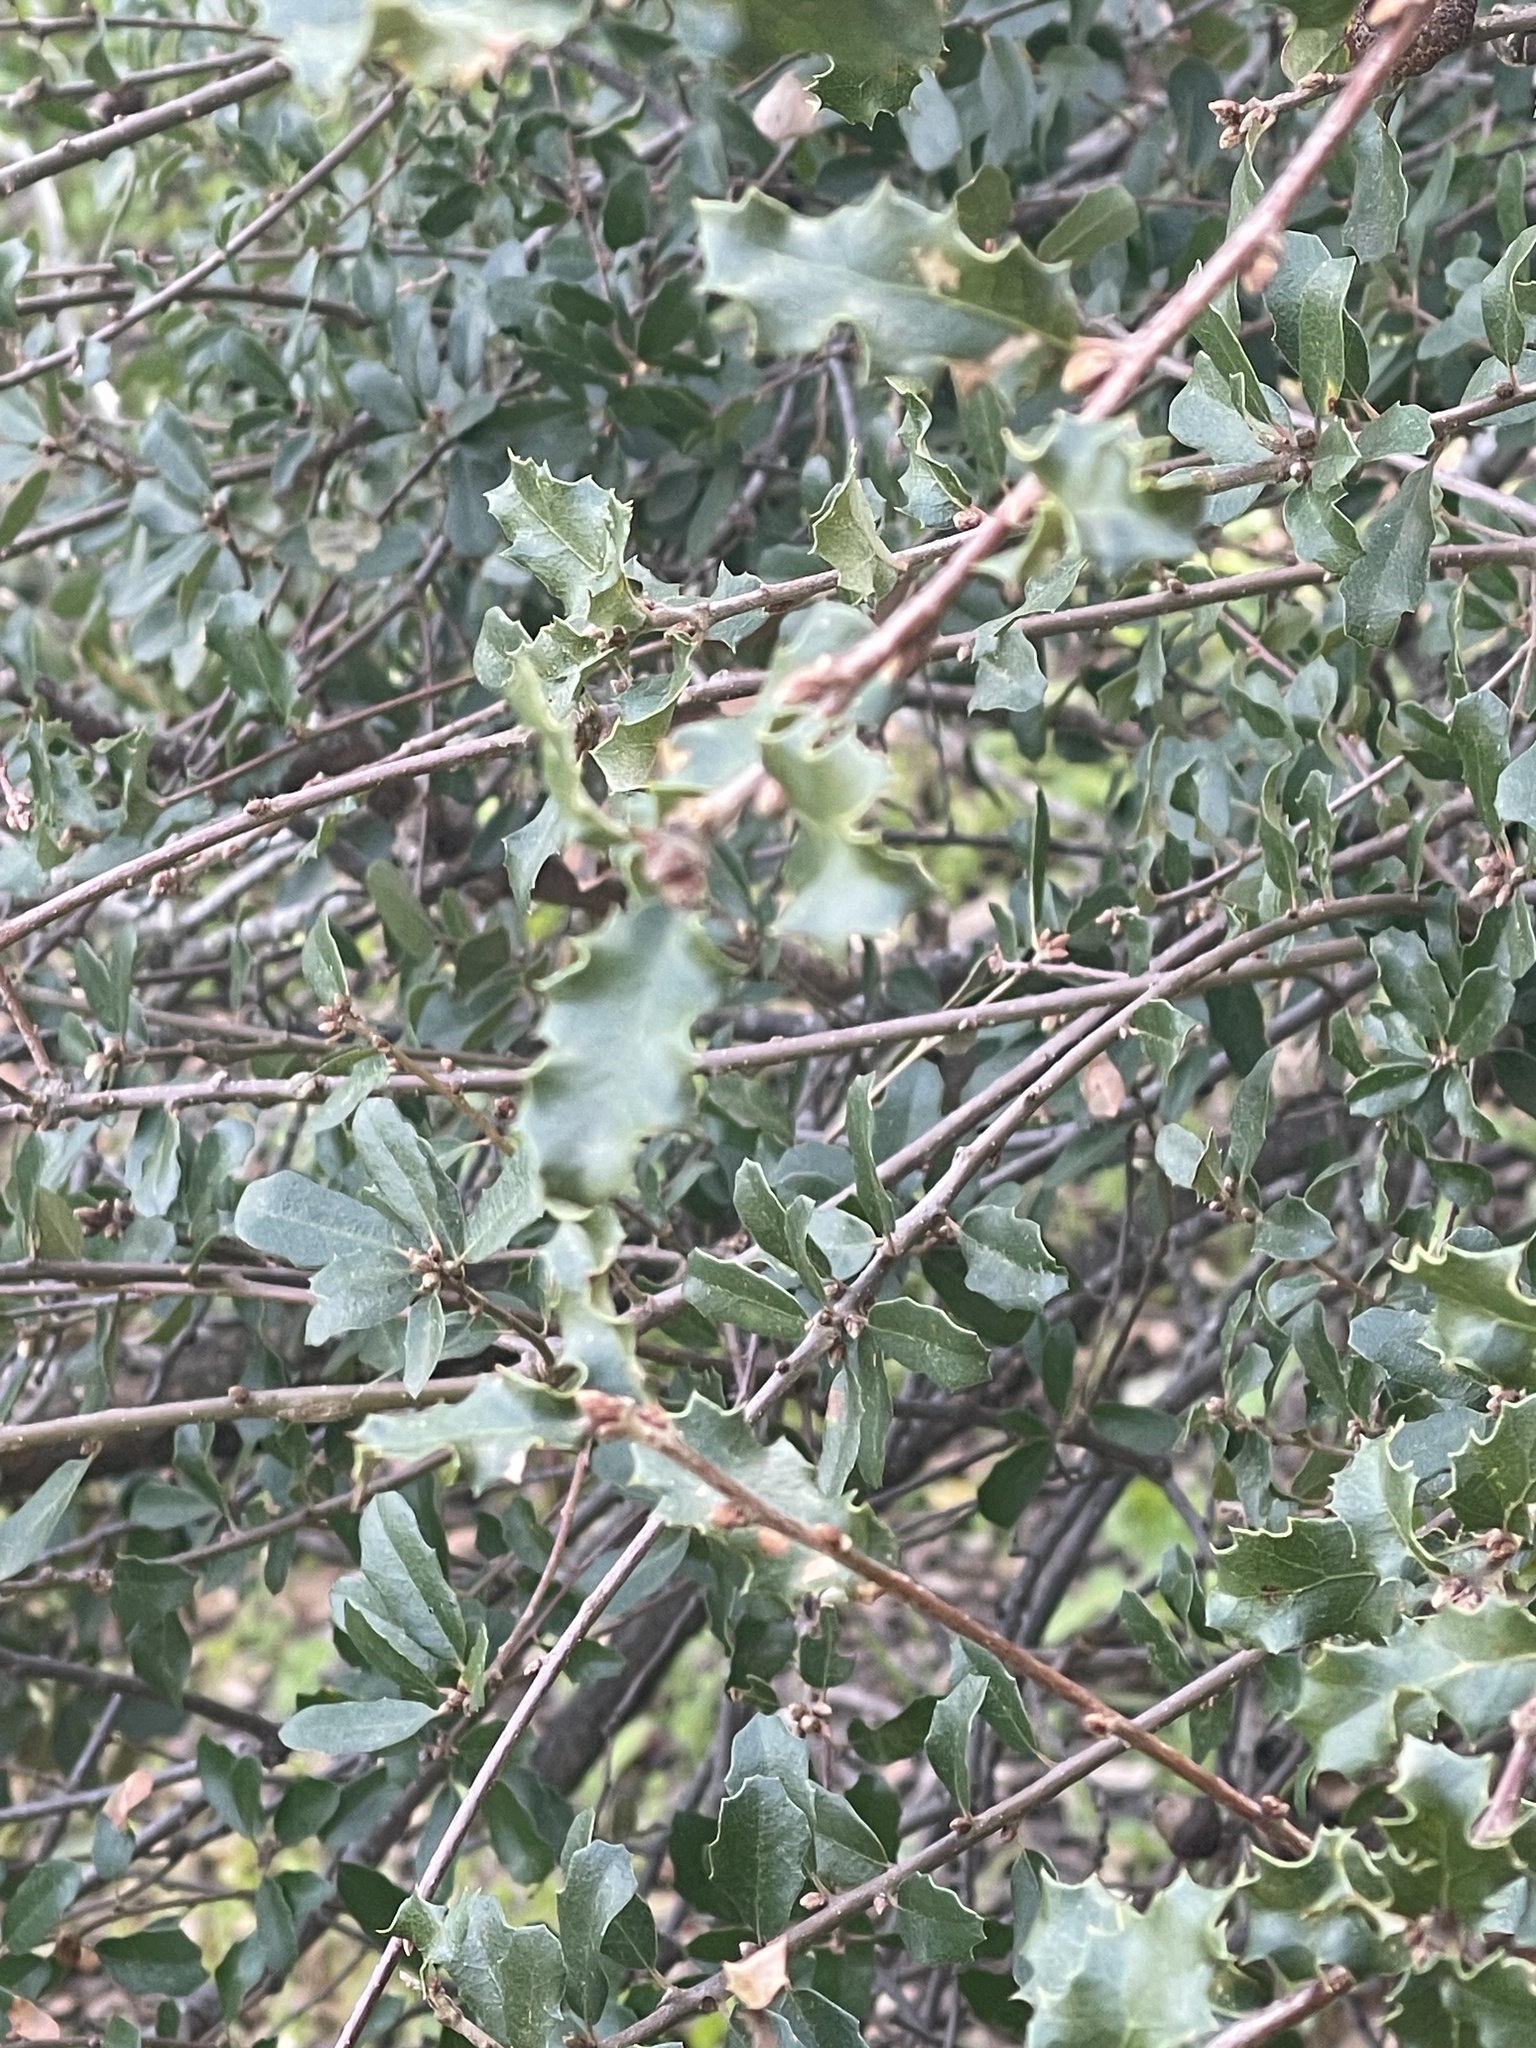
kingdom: Plantae
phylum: Tracheophyta
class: Magnoliopsida
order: Fagales
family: Fagaceae
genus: Quercus
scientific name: Quercus berberidifolia
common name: California scrub oak
